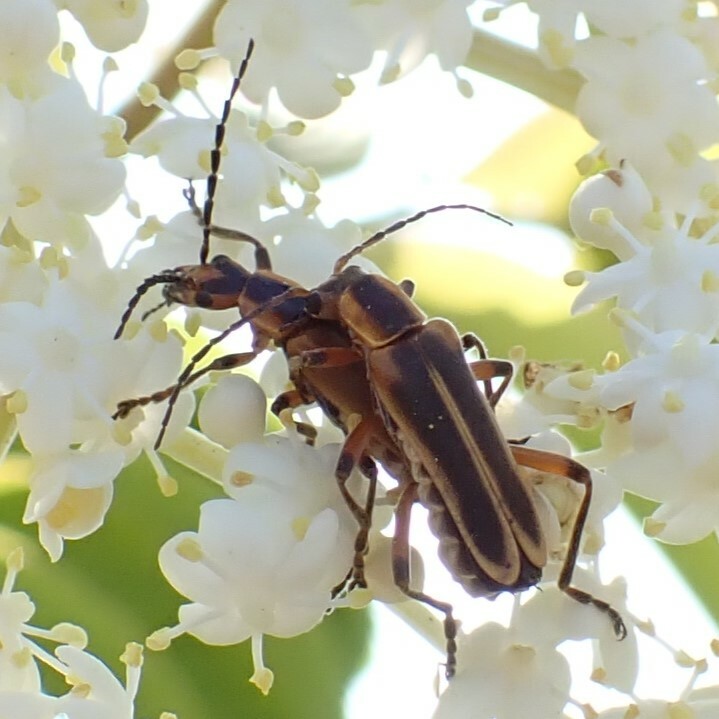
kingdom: Animalia
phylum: Arthropoda
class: Insecta
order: Coleoptera
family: Cantharidae
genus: Chauliognathus
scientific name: Chauliognathus marginatus
